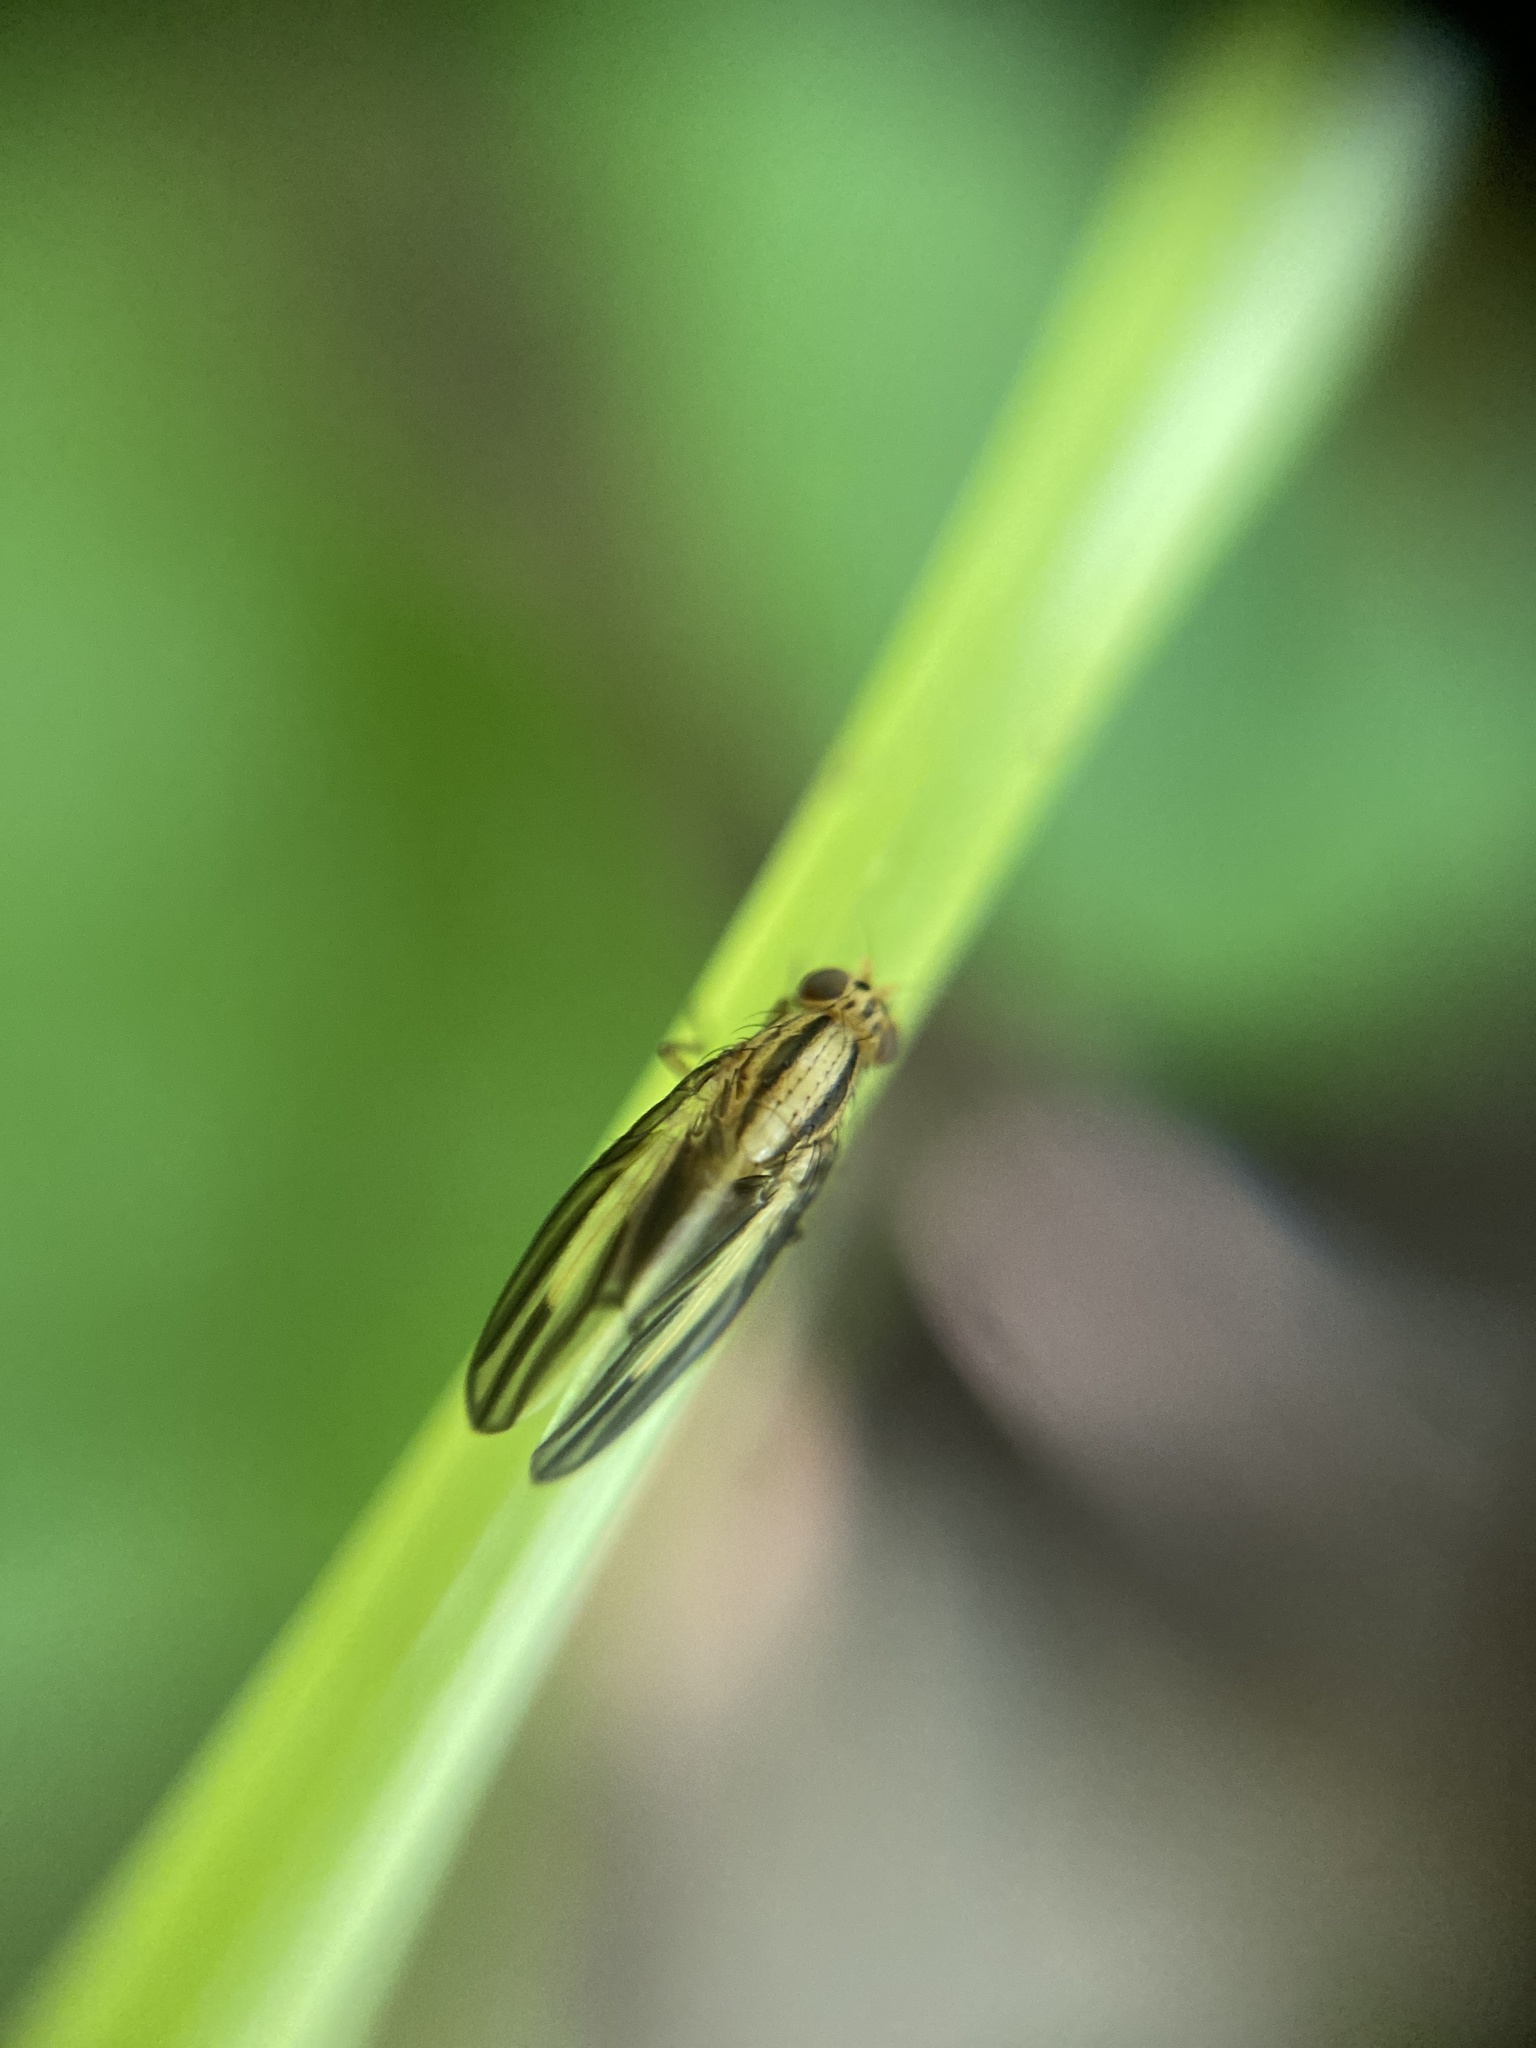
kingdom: Animalia
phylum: Arthropoda
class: Insecta
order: Diptera
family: Lauxaniidae
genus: Peplomyza
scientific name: Peplomyza discoidea
